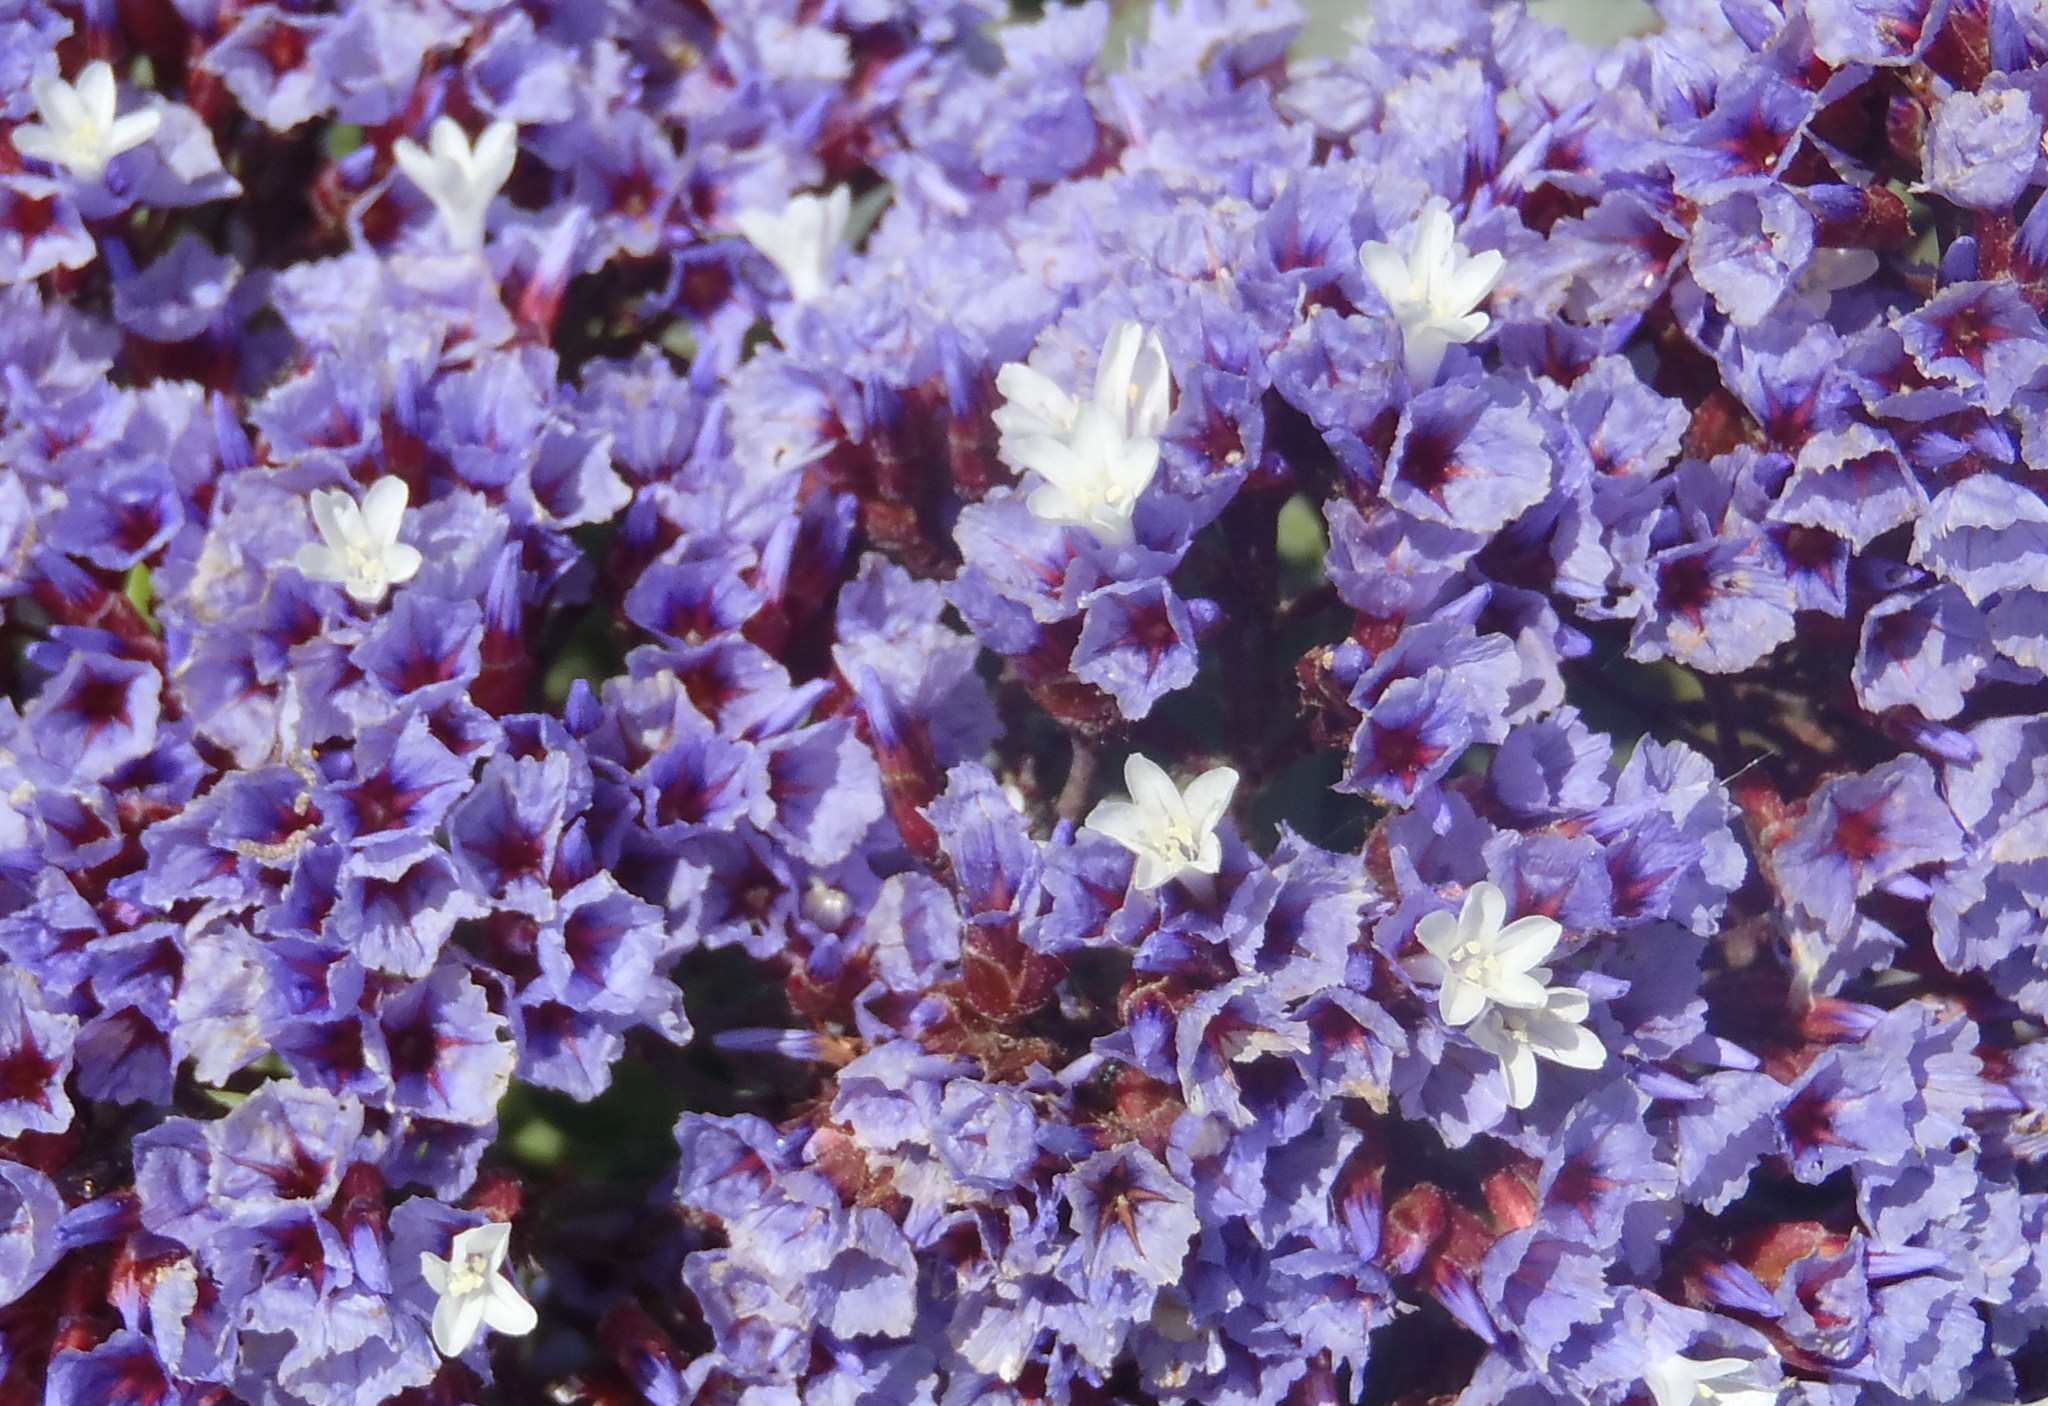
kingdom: Plantae
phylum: Tracheophyta
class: Magnoliopsida
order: Caryophyllales
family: Plumbaginaceae
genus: Limonium
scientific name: Limonium perezii
